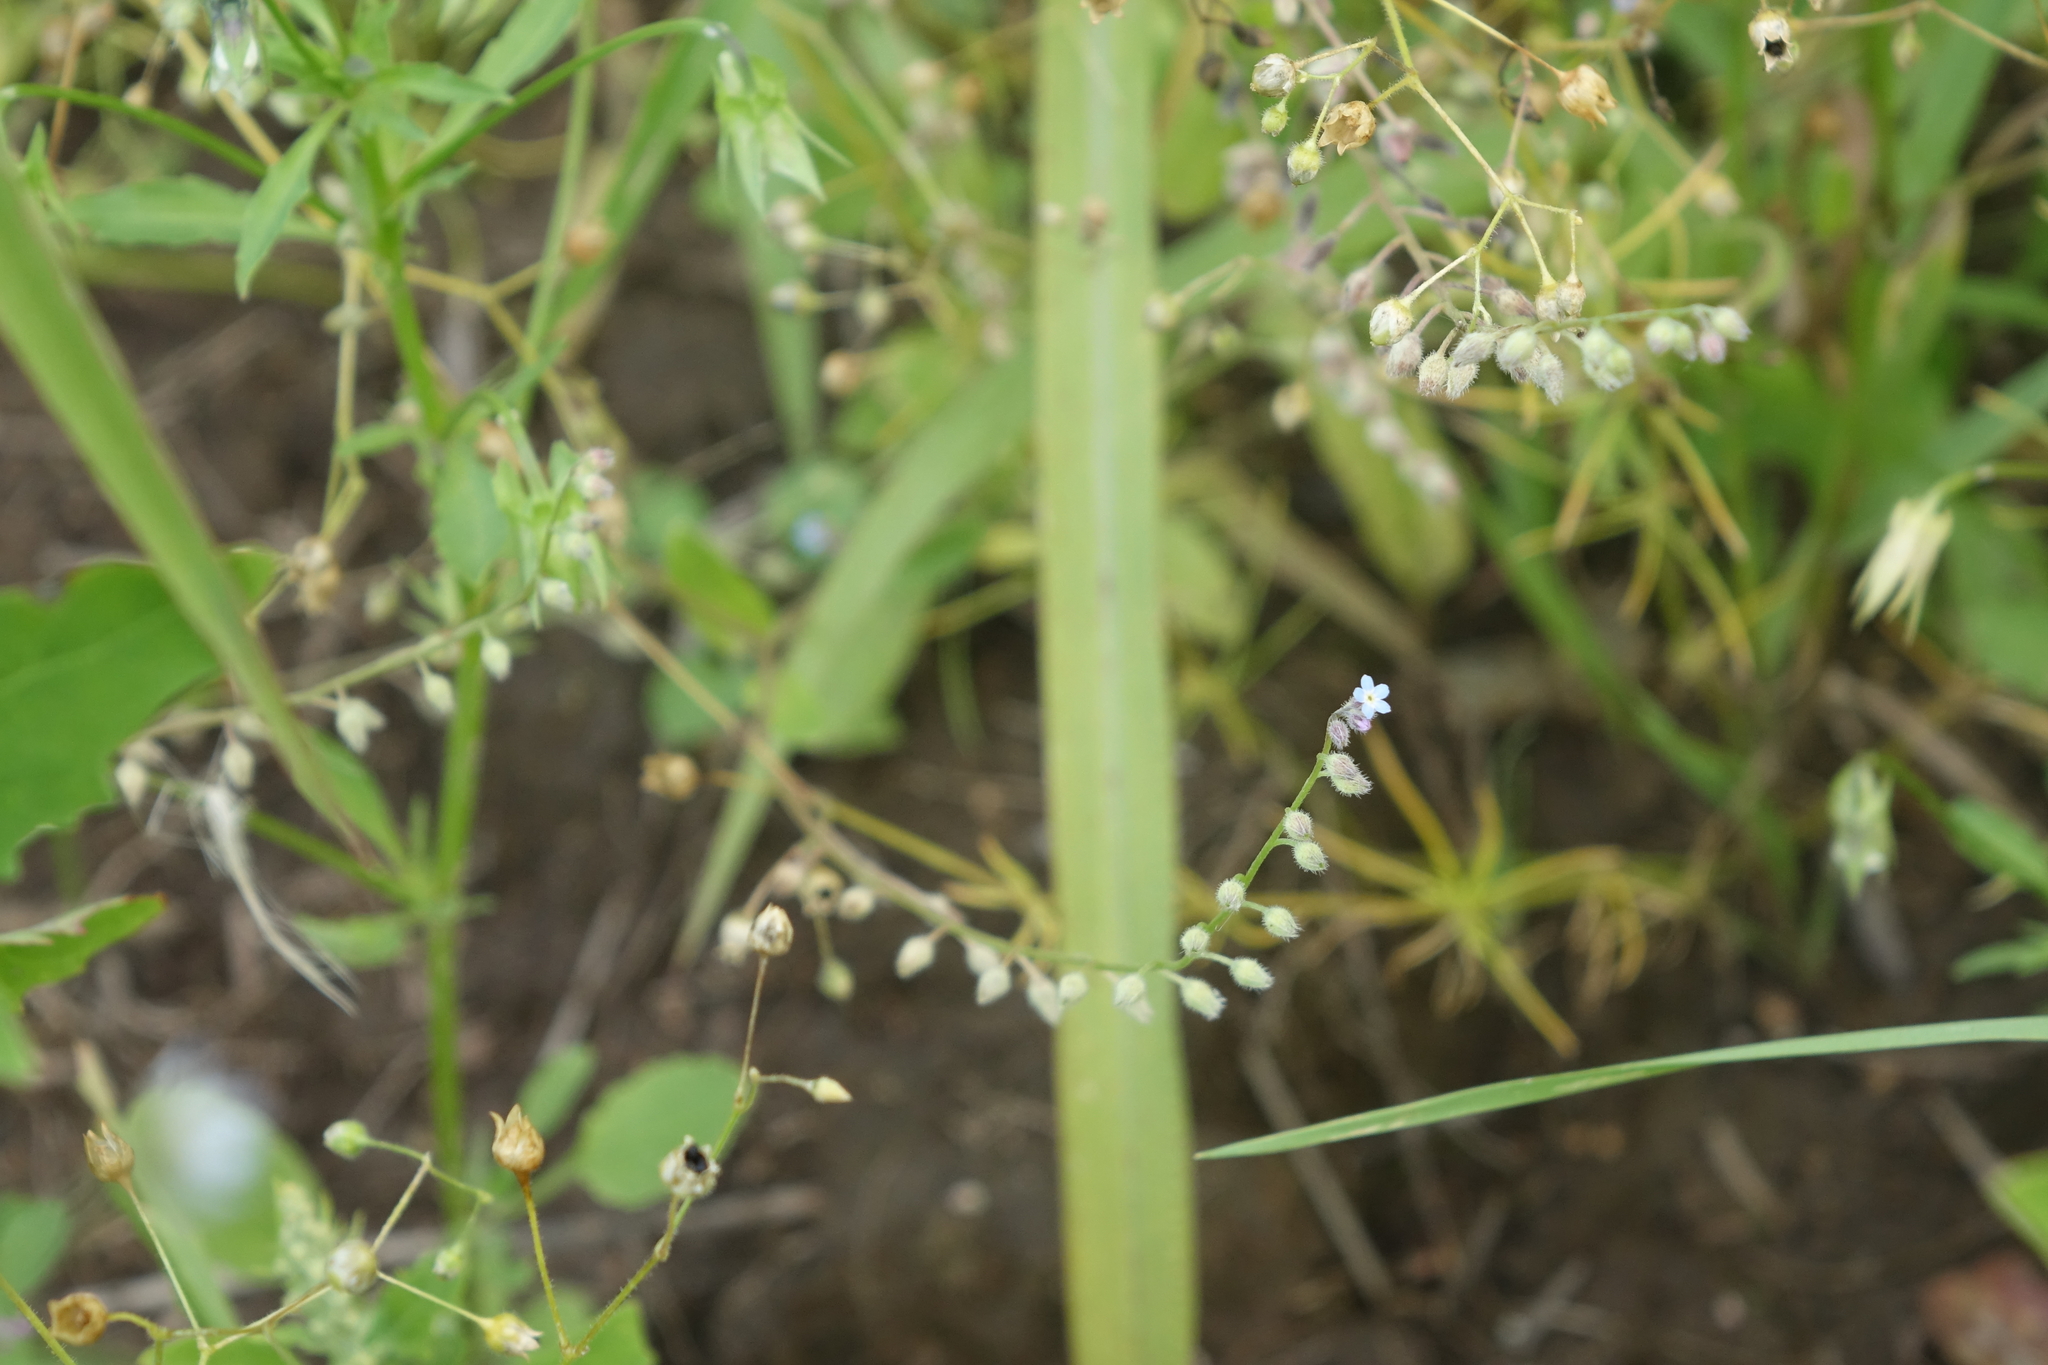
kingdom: Plantae
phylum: Tracheophyta
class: Magnoliopsida
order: Boraginales
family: Boraginaceae
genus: Myosotis
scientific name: Myosotis arvensis
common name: Field forget-me-not
